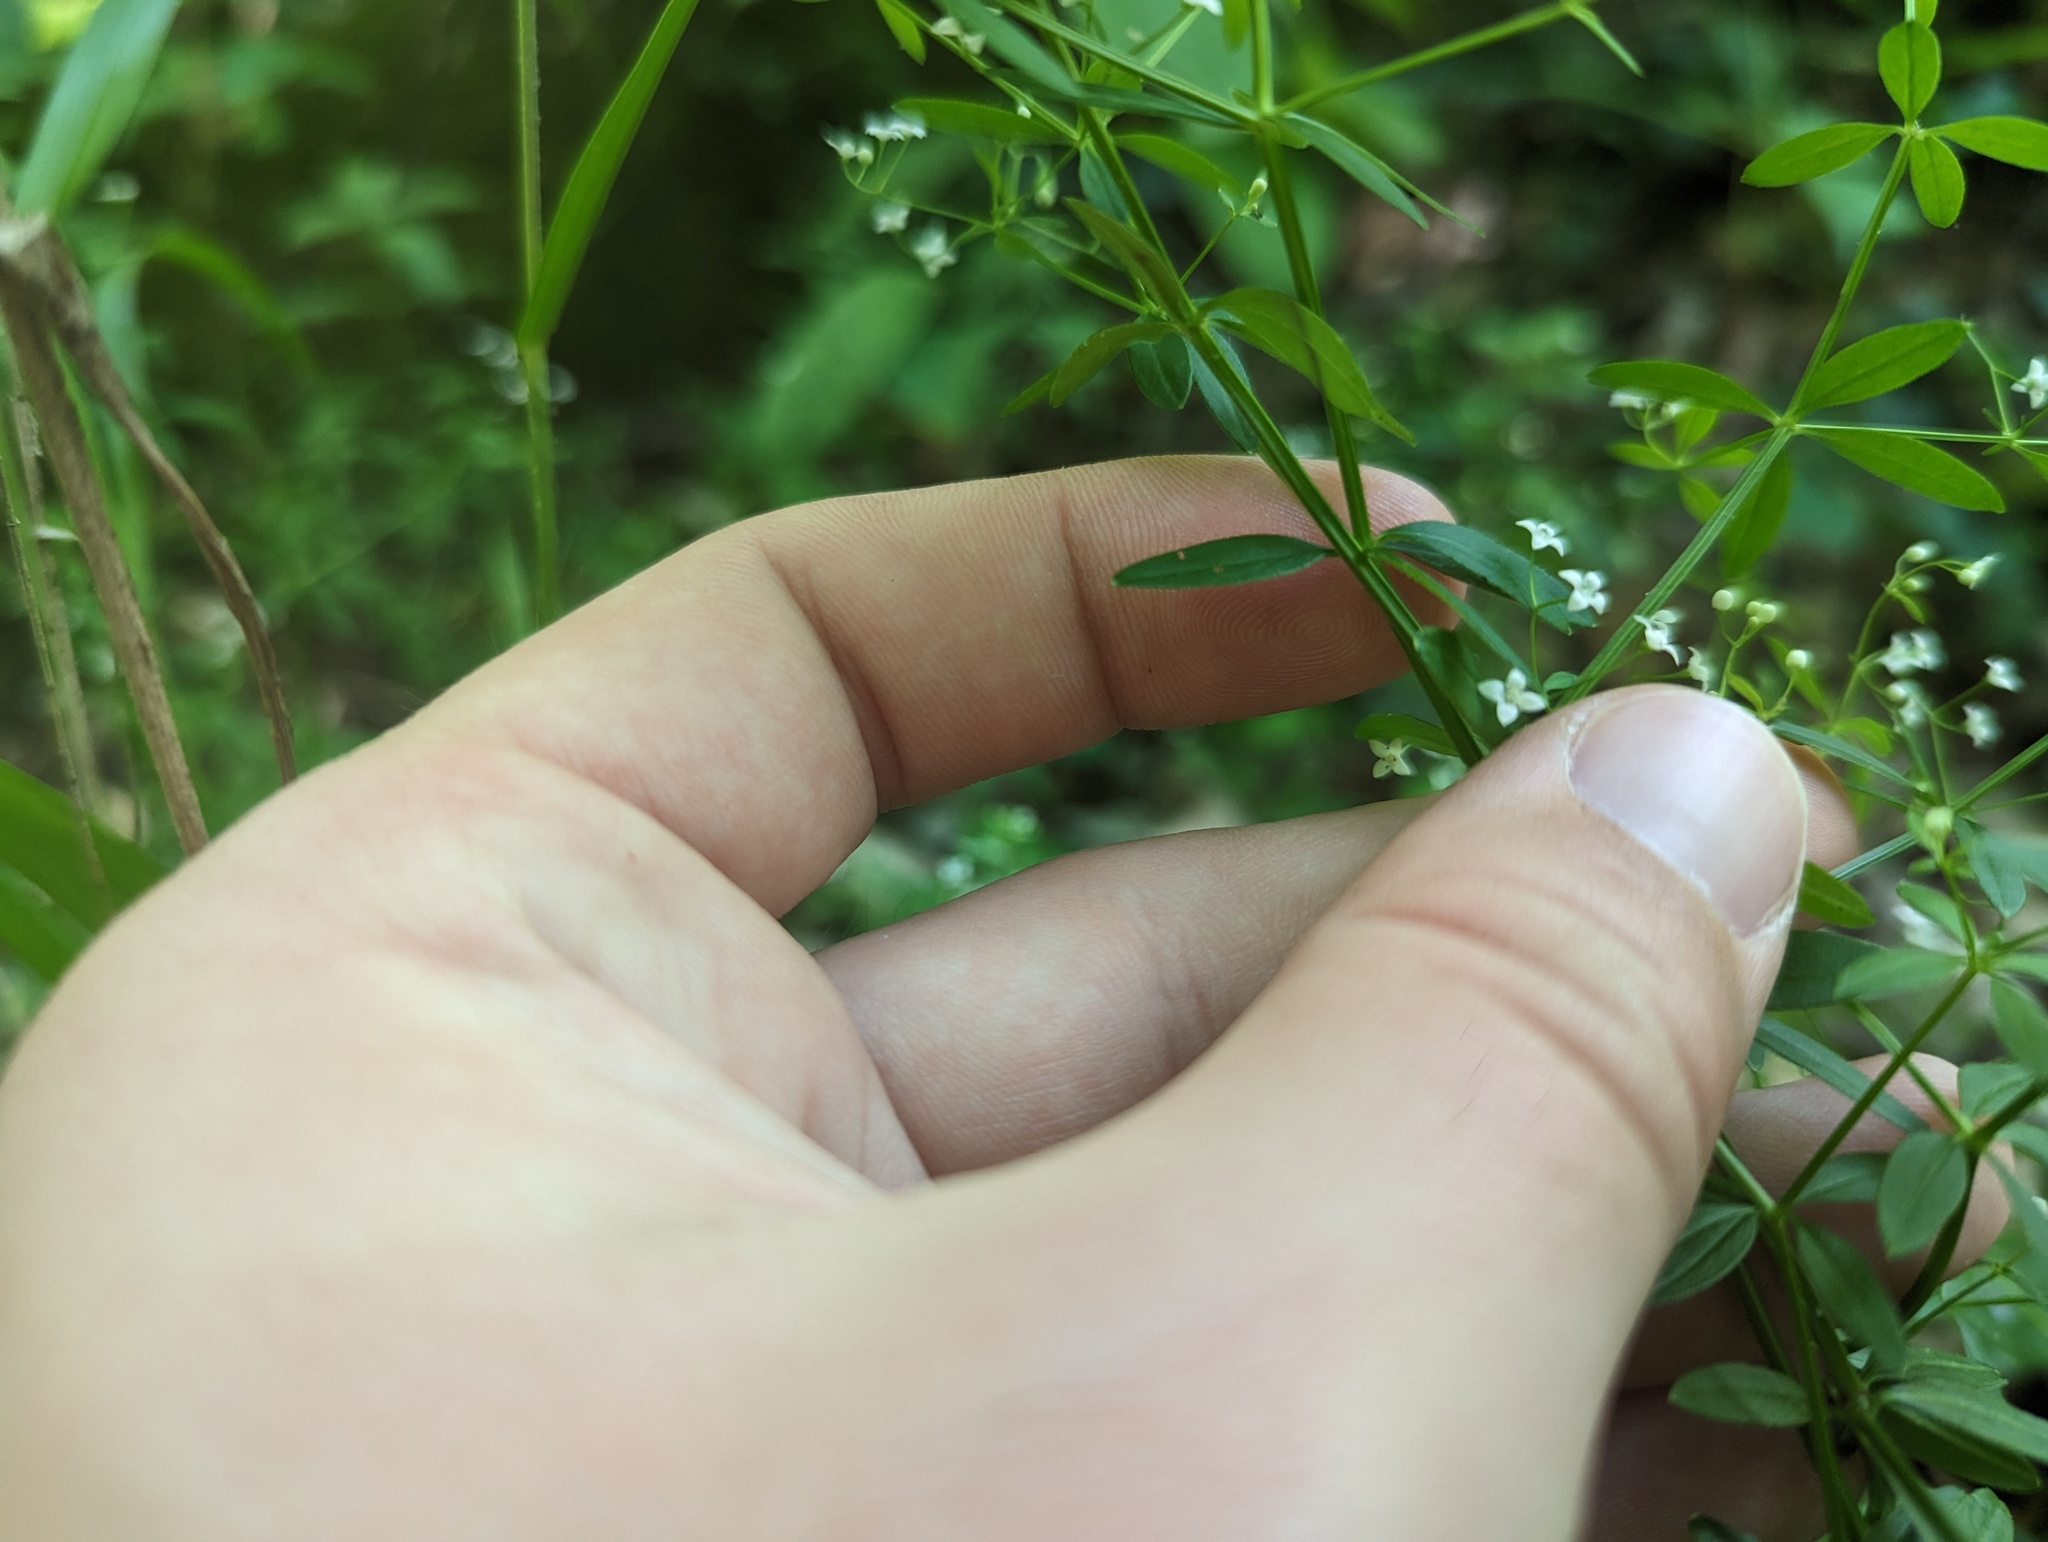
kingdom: Plantae
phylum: Tracheophyta
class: Magnoliopsida
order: Gentianales
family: Rubiaceae
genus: Galium
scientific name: Galium obtusum
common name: Blunt-leaved bedstraw
